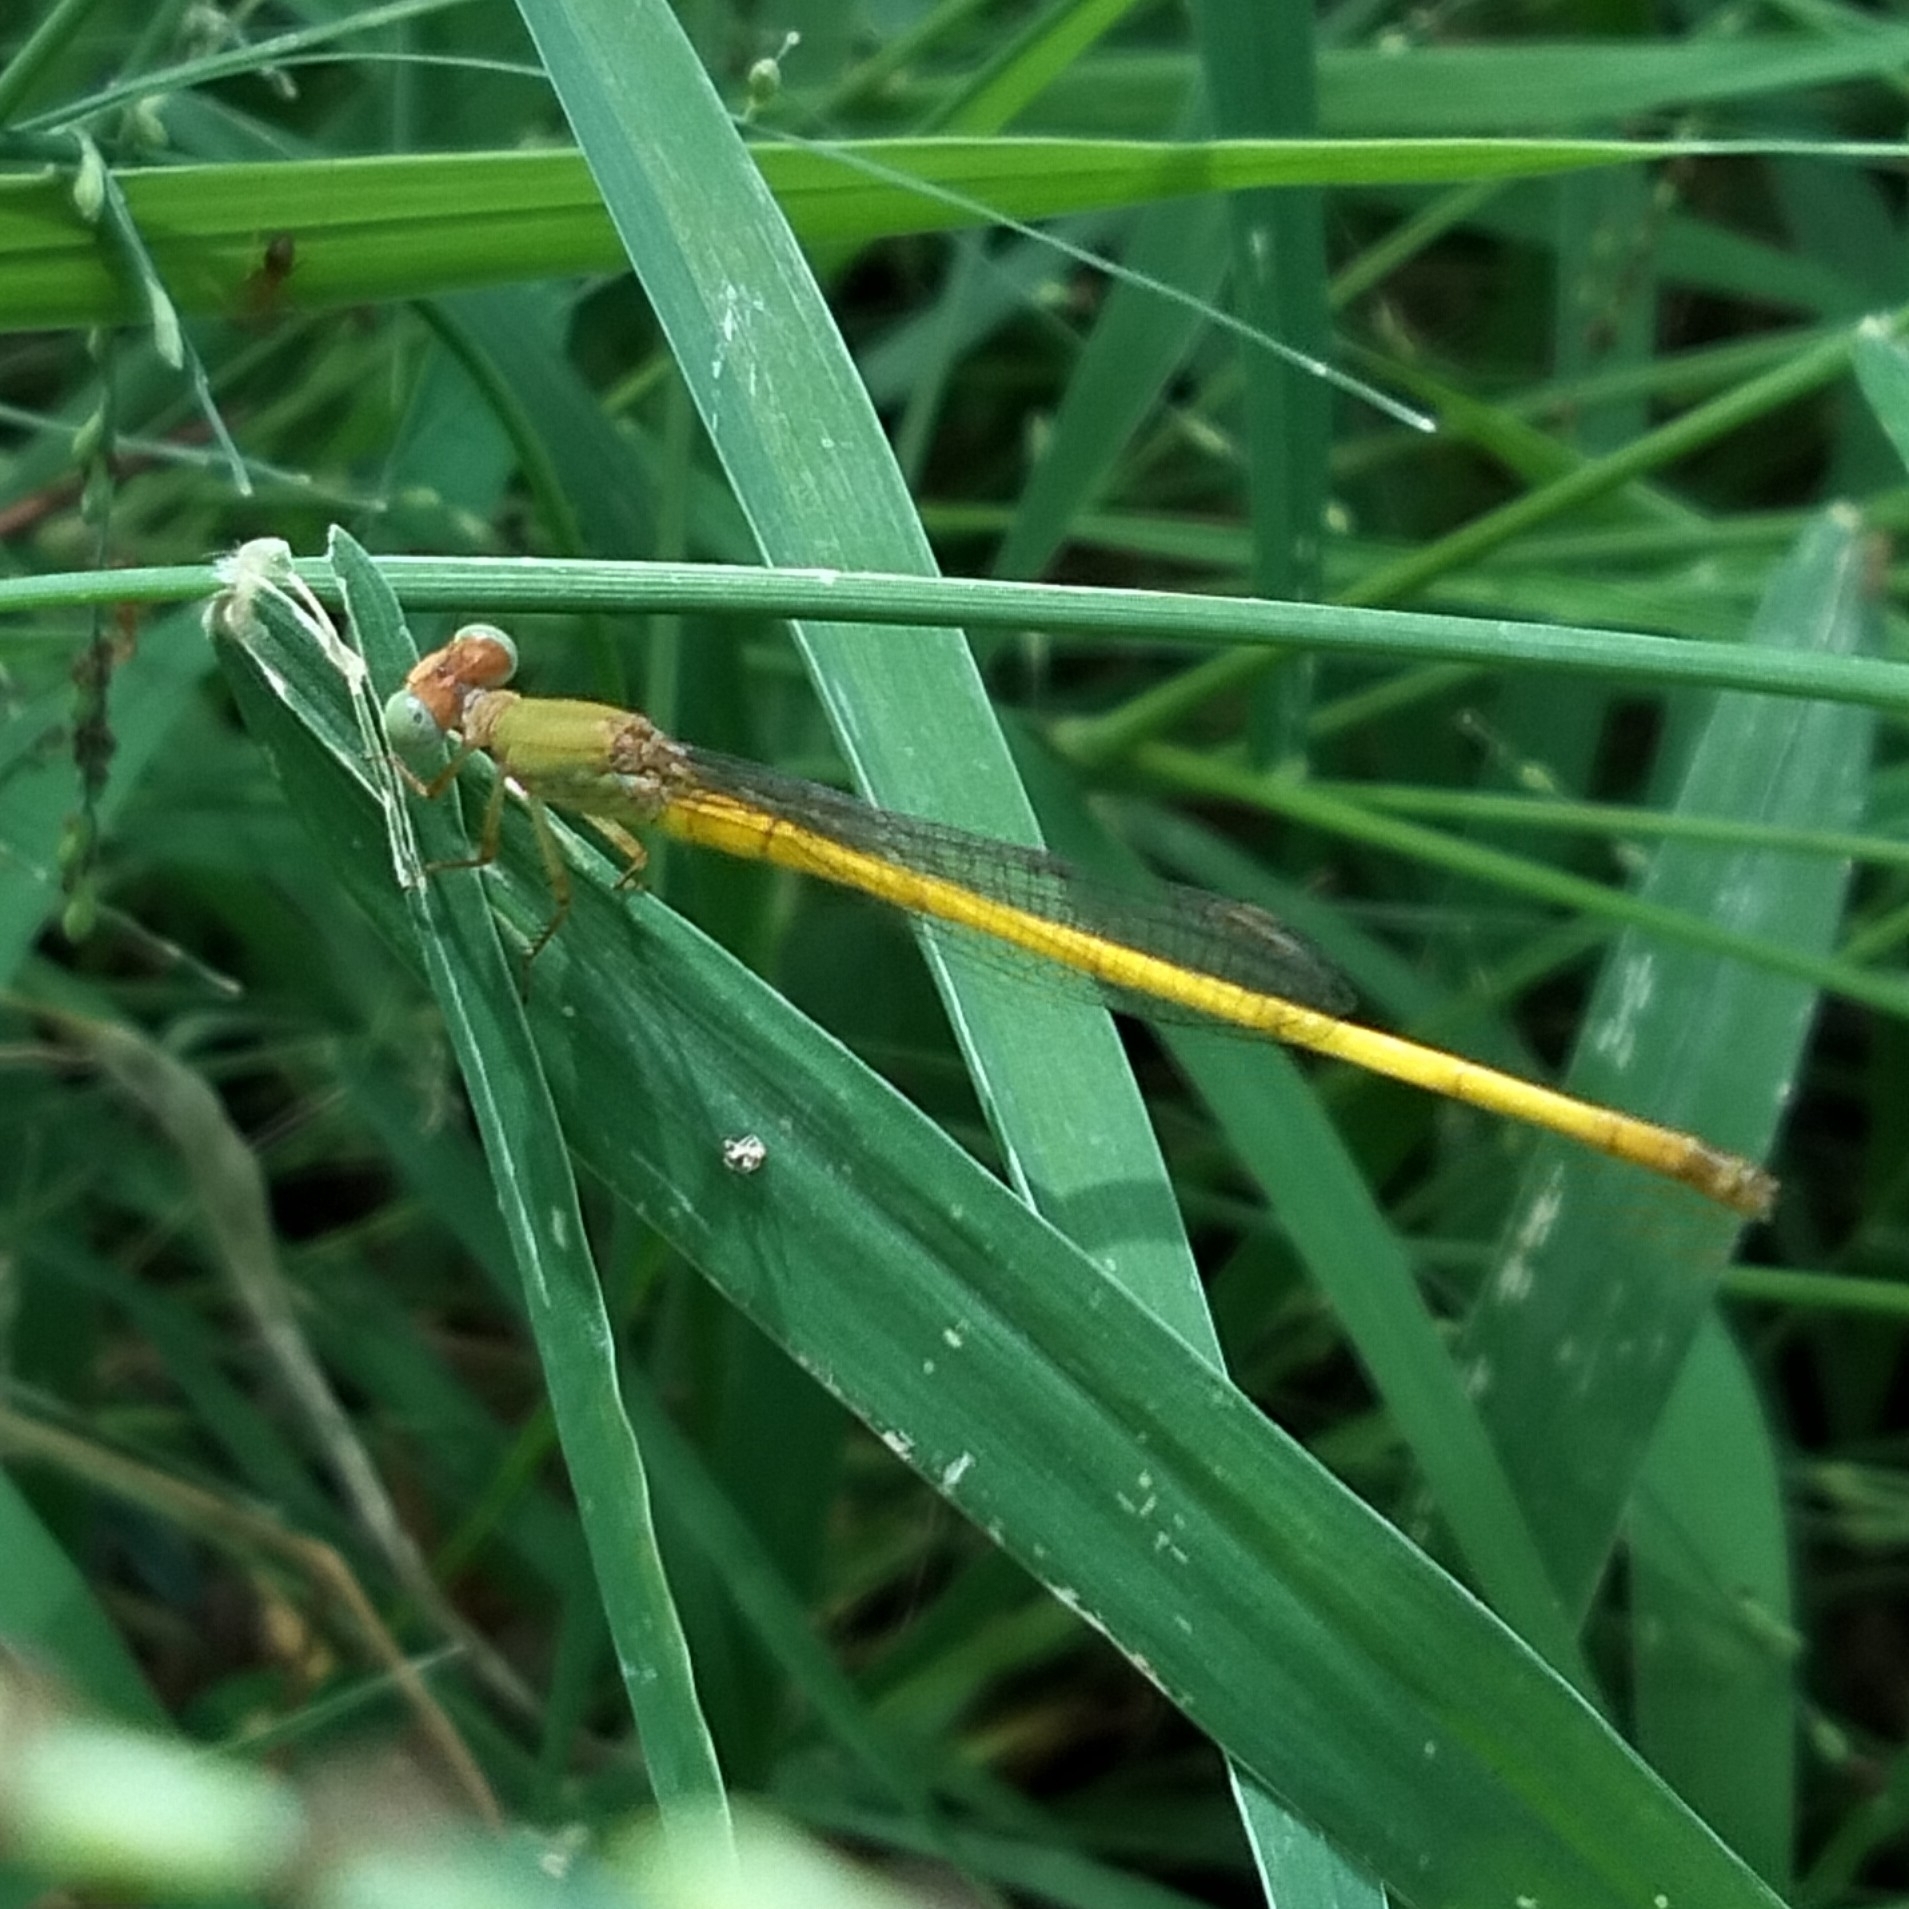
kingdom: Animalia
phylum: Arthropoda
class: Insecta
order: Odonata
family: Coenagrionidae
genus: Ceriagrion
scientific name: Ceriagrion coromandelianum
